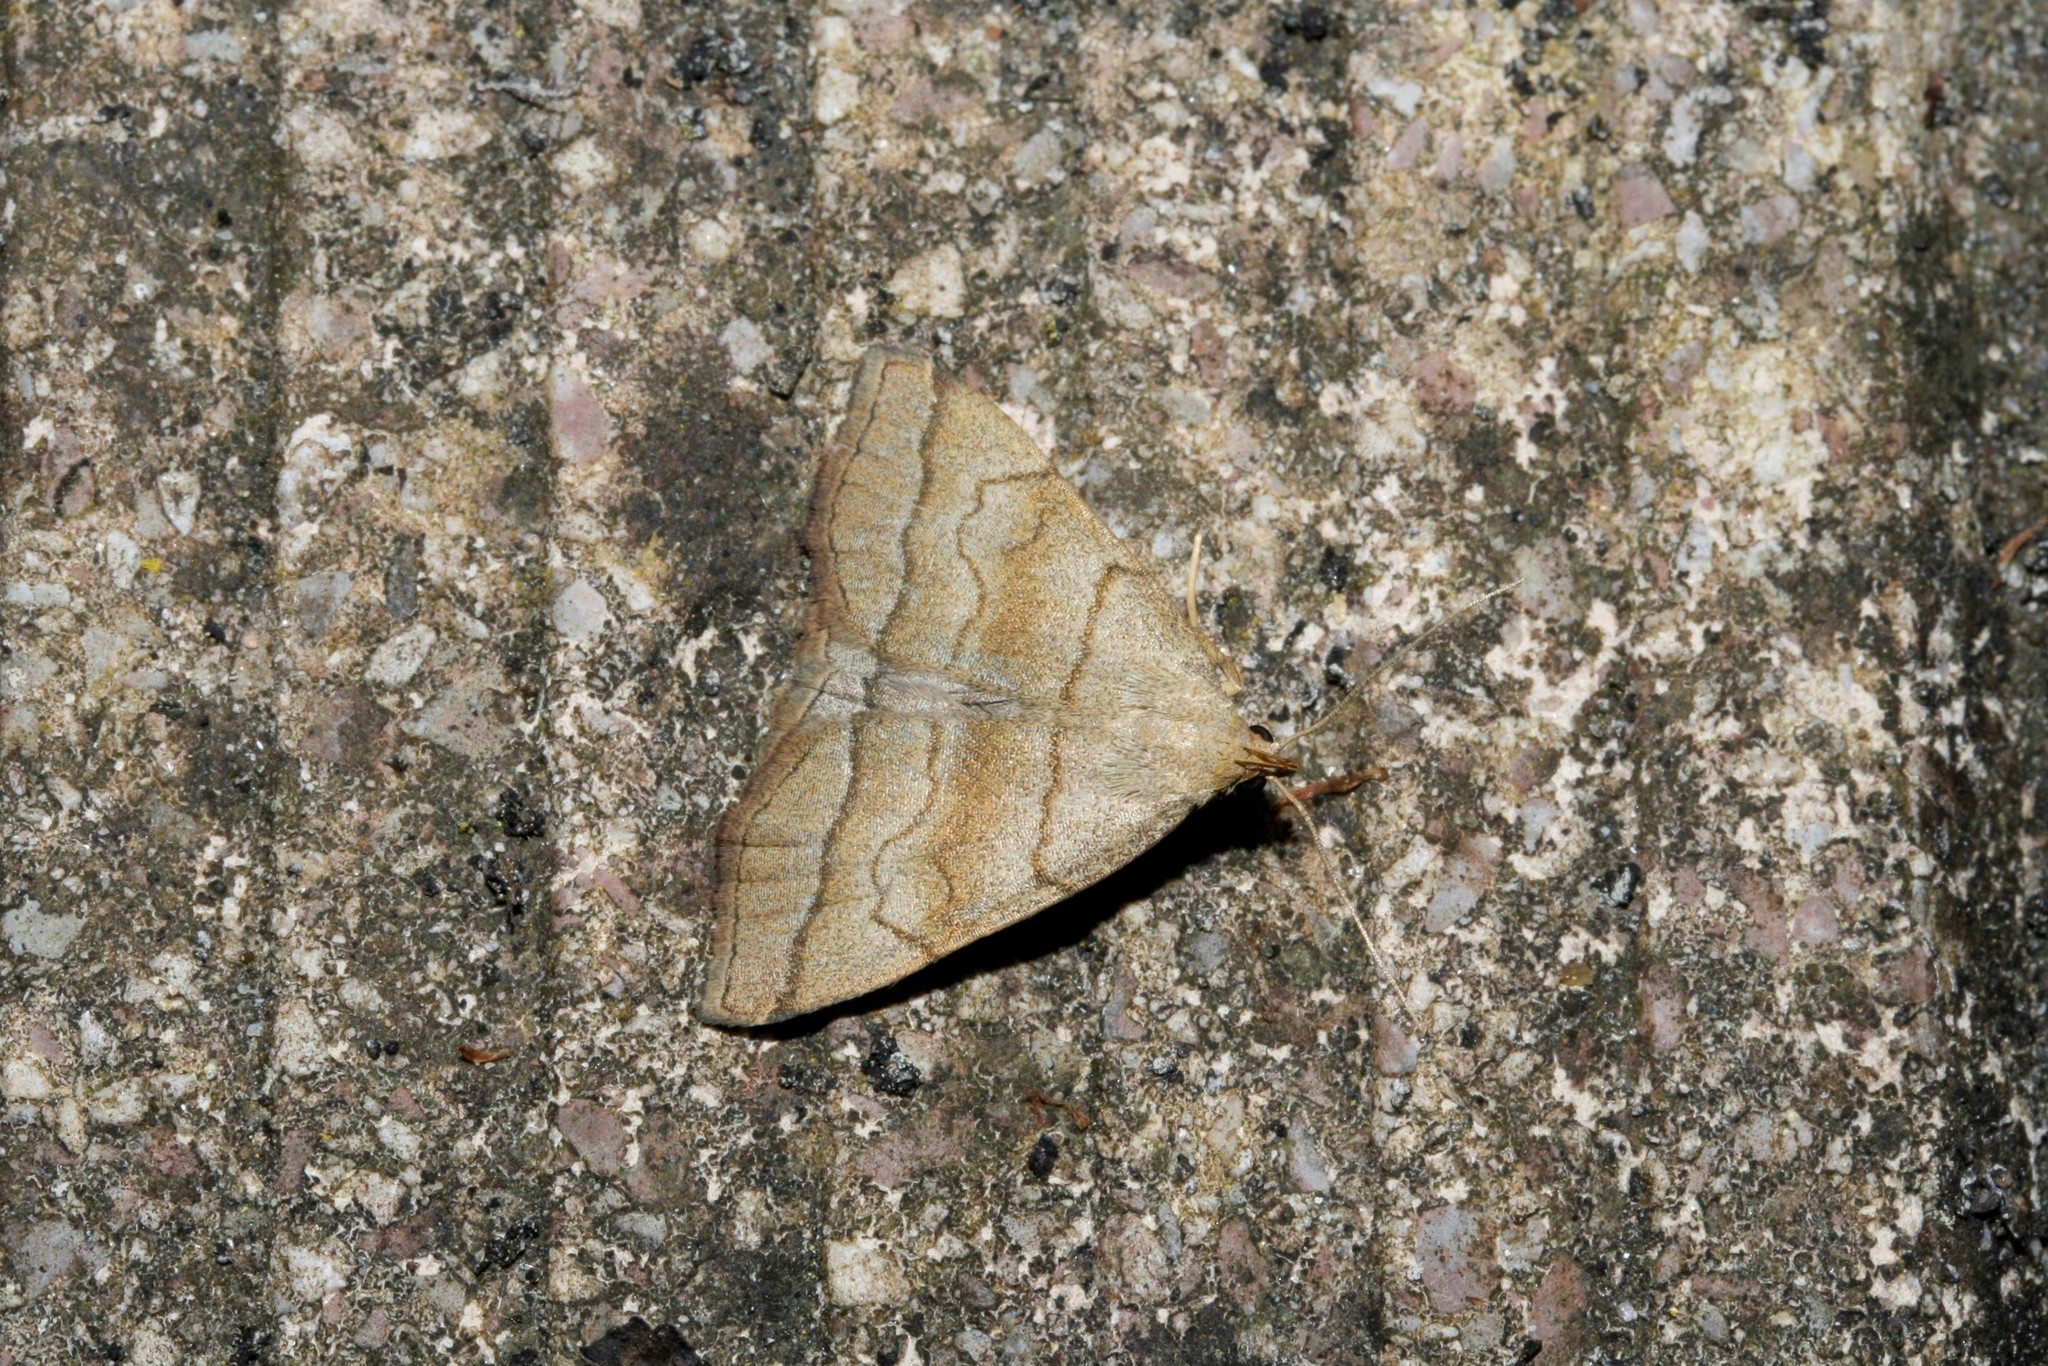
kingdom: Animalia
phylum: Arthropoda
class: Insecta
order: Lepidoptera
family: Erebidae
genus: Herminia
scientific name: Herminia tarsicrinalis
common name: Shaded fan-foot
